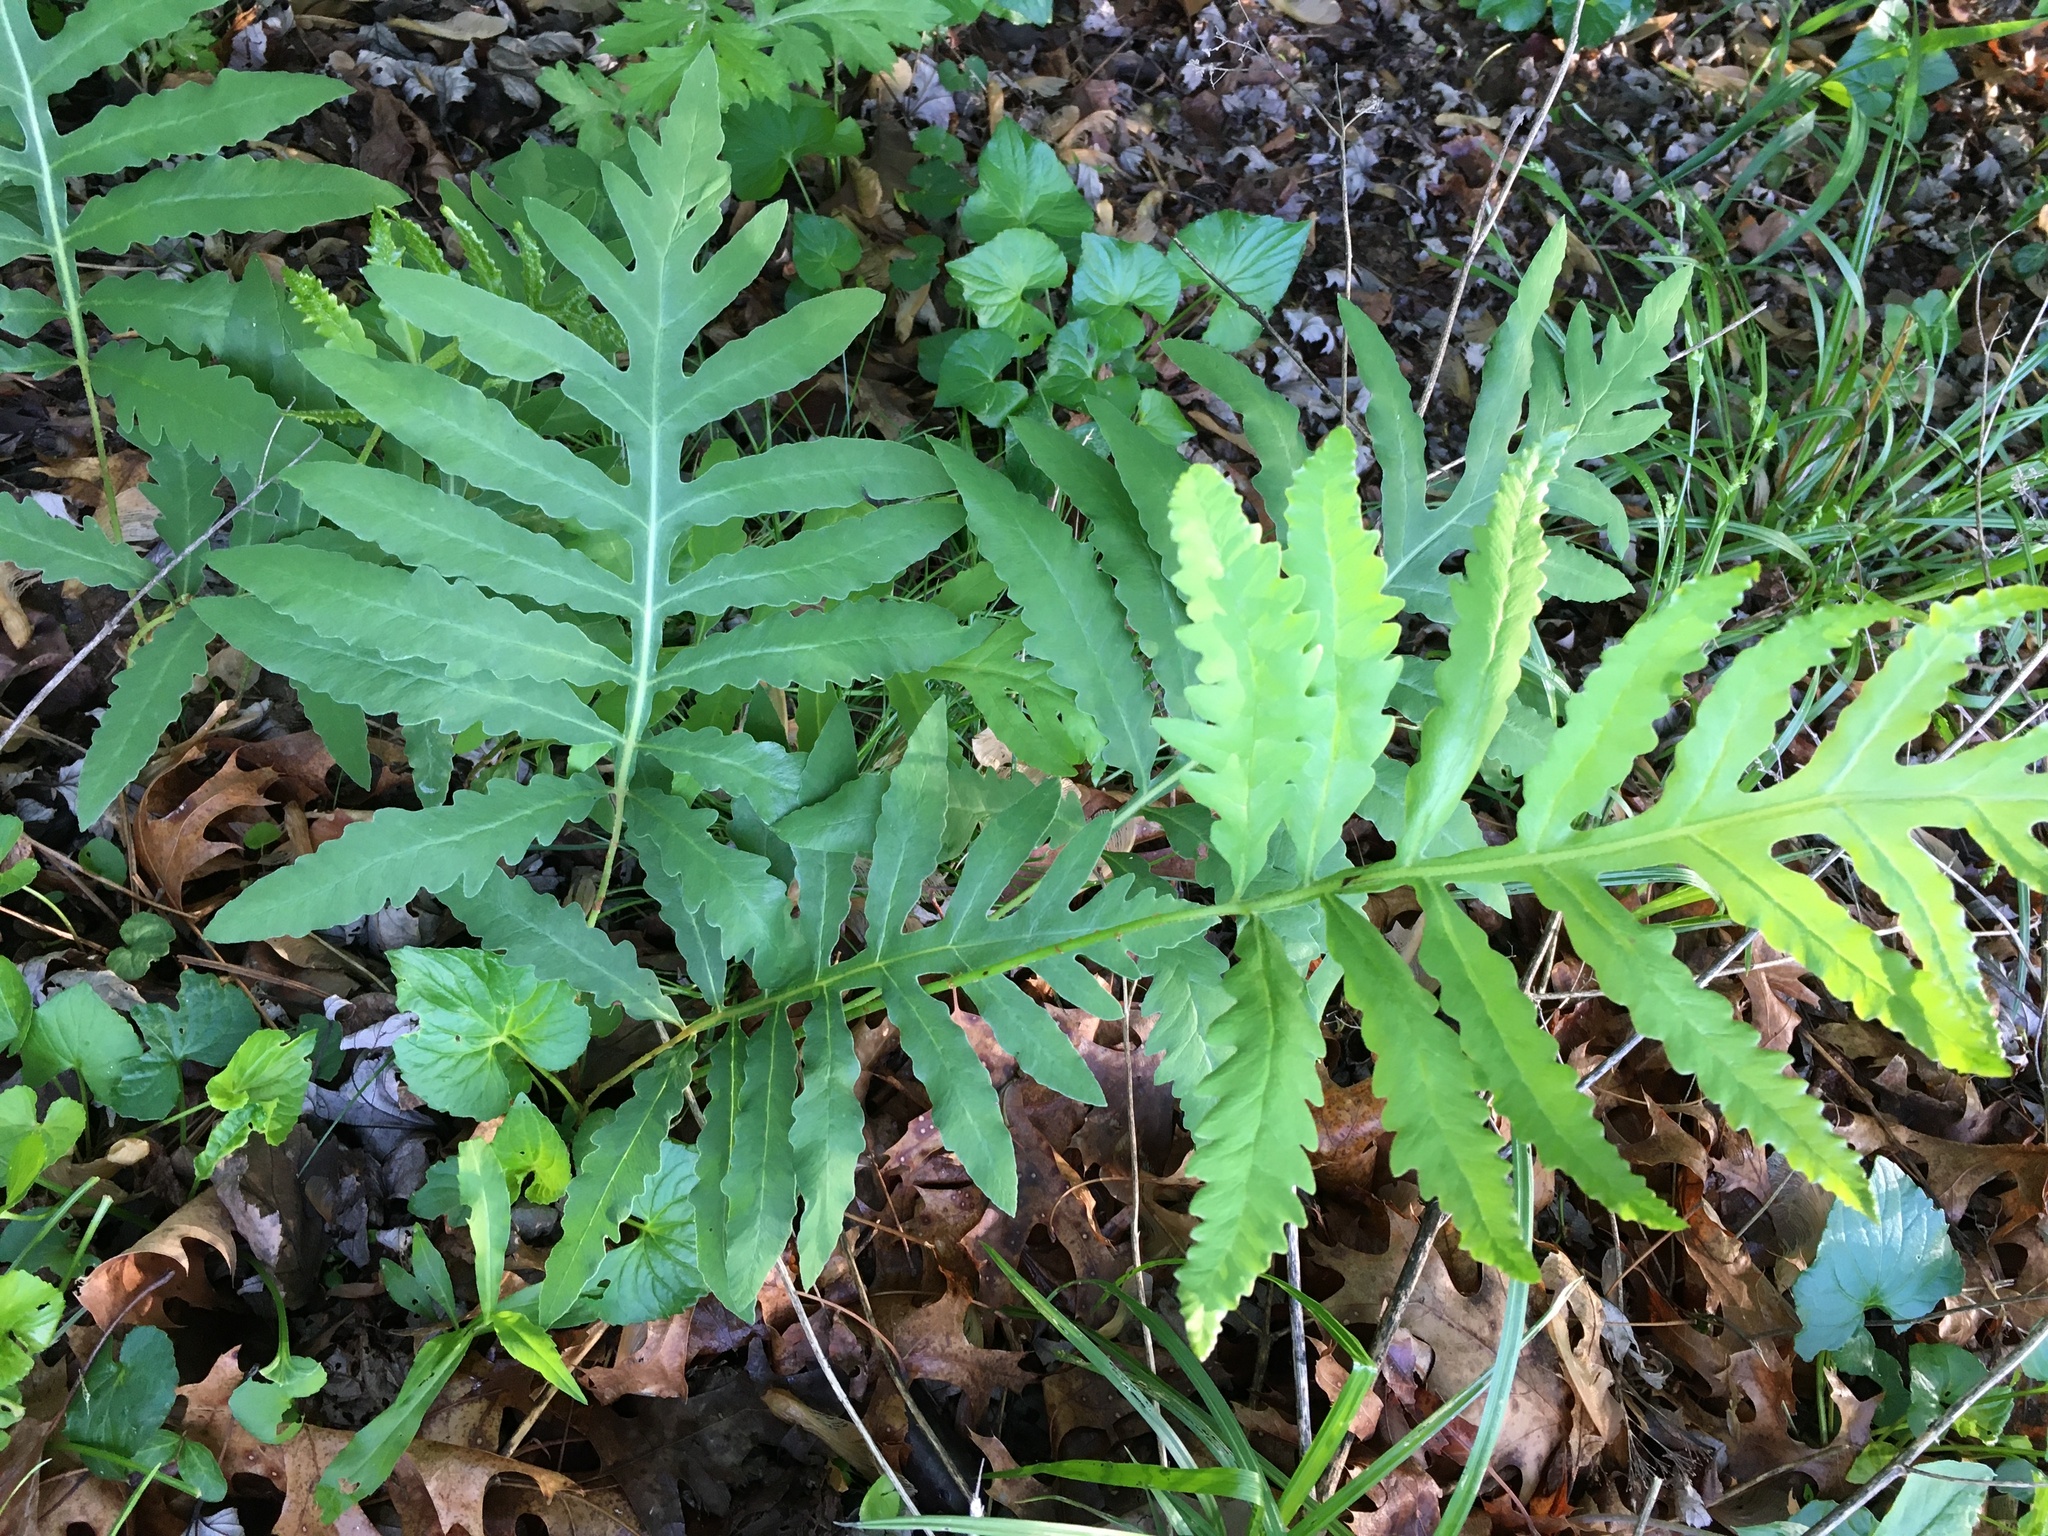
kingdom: Plantae
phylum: Tracheophyta
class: Polypodiopsida
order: Polypodiales
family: Onocleaceae
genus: Onoclea
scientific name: Onoclea sensibilis
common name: Sensitive fern
